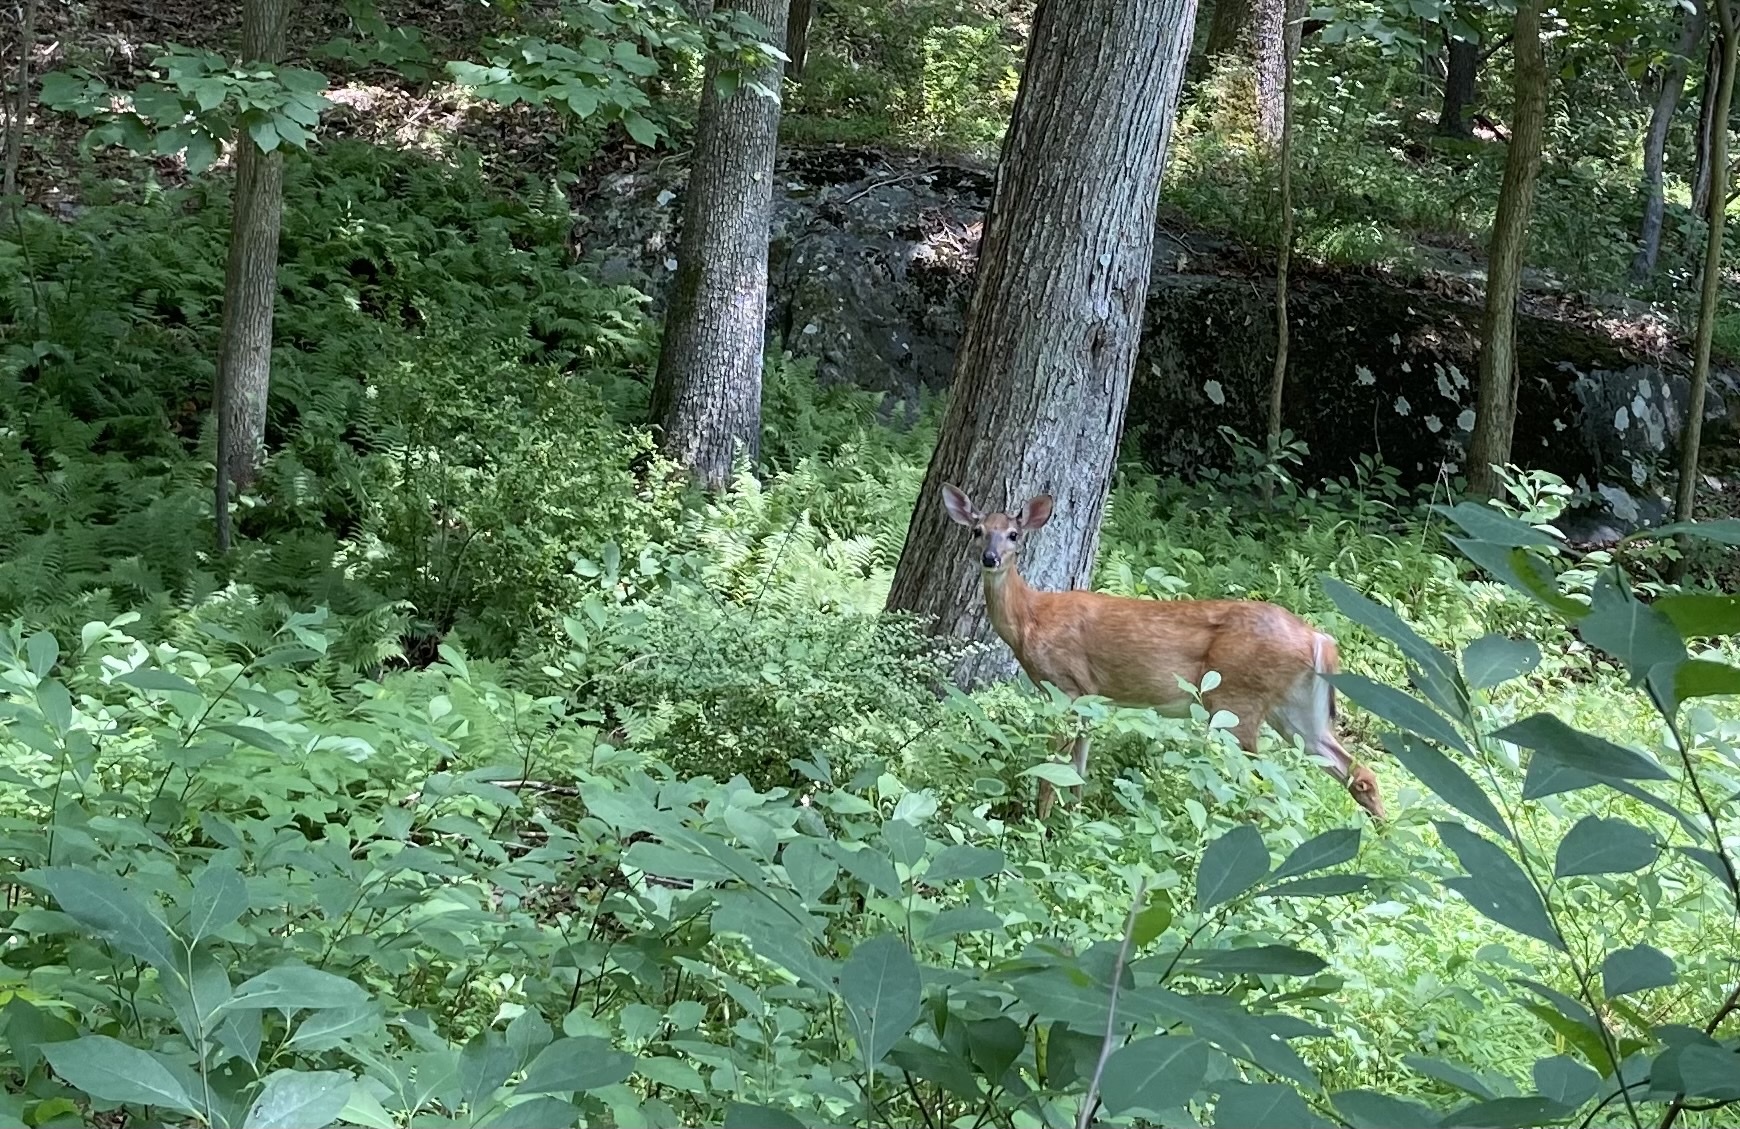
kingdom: Animalia
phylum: Chordata
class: Mammalia
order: Artiodactyla
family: Cervidae
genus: Odocoileus
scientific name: Odocoileus virginianus
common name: White-tailed deer
